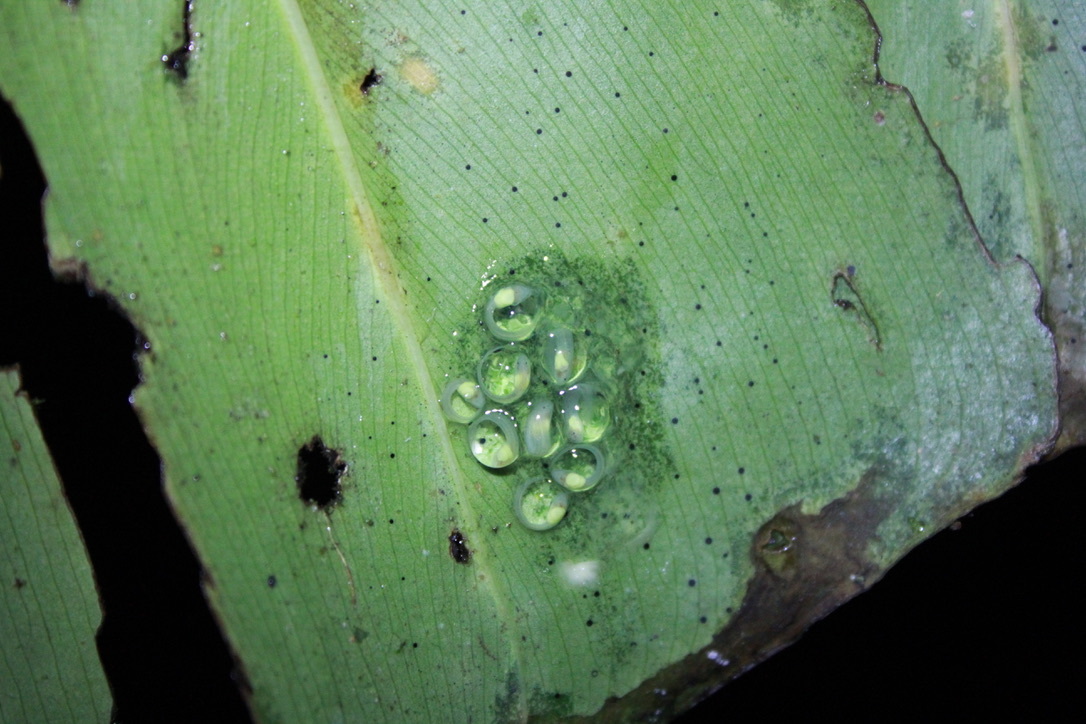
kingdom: Animalia
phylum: Chordata
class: Amphibia
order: Anura
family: Centrolenidae
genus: Hyalinobatrachium
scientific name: Hyalinobatrachium orientale
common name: Eastern glass frog
